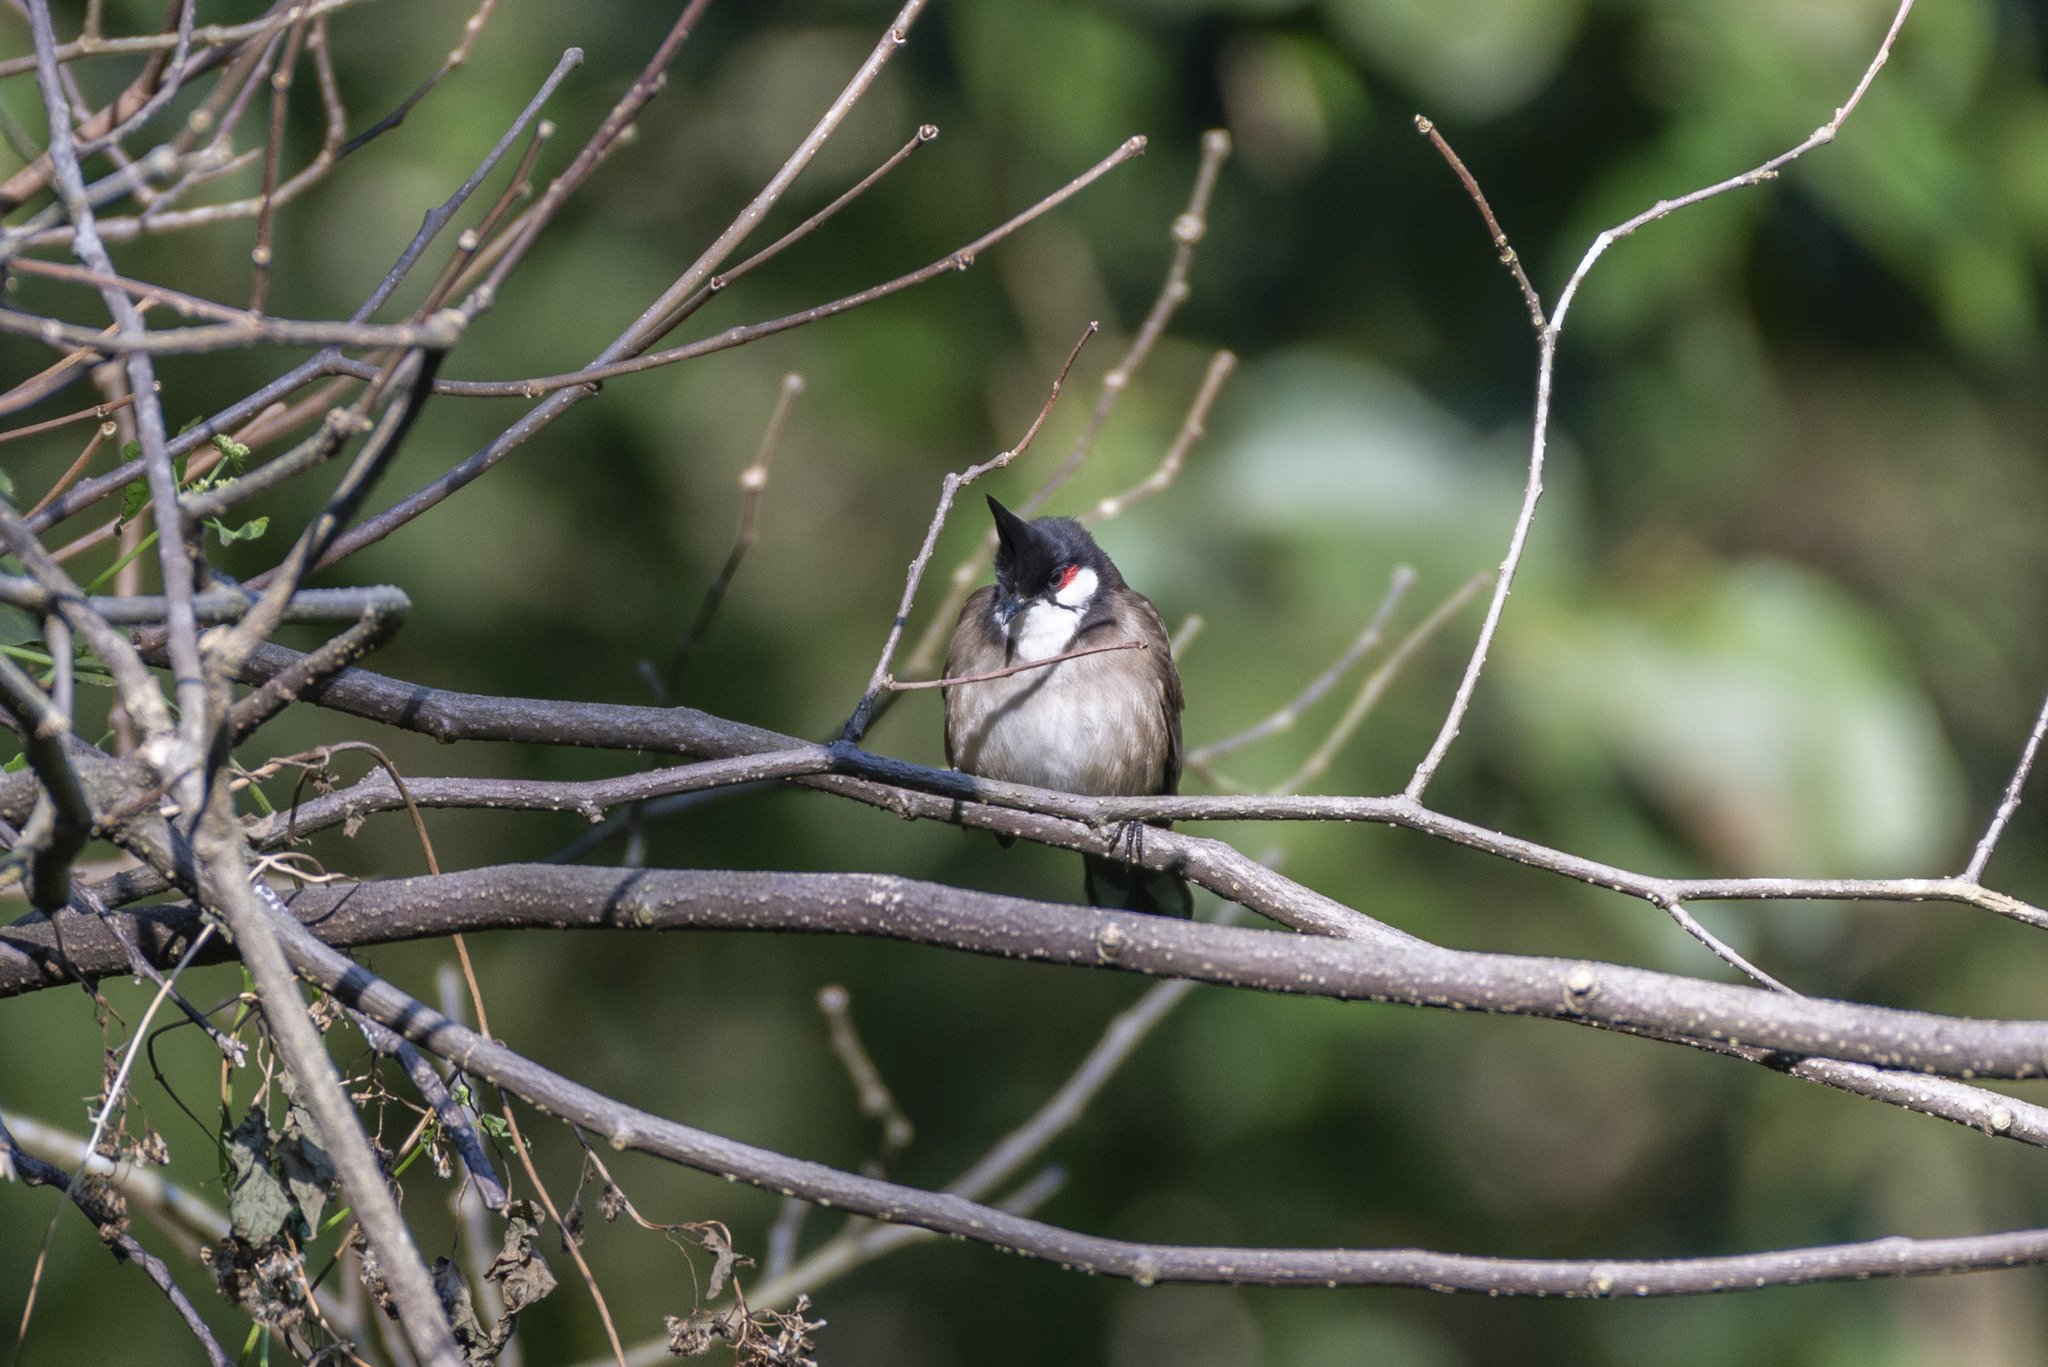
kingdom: Animalia
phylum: Chordata
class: Aves
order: Passeriformes
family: Pycnonotidae
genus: Pycnonotus
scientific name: Pycnonotus jocosus
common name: Red-whiskered bulbul
